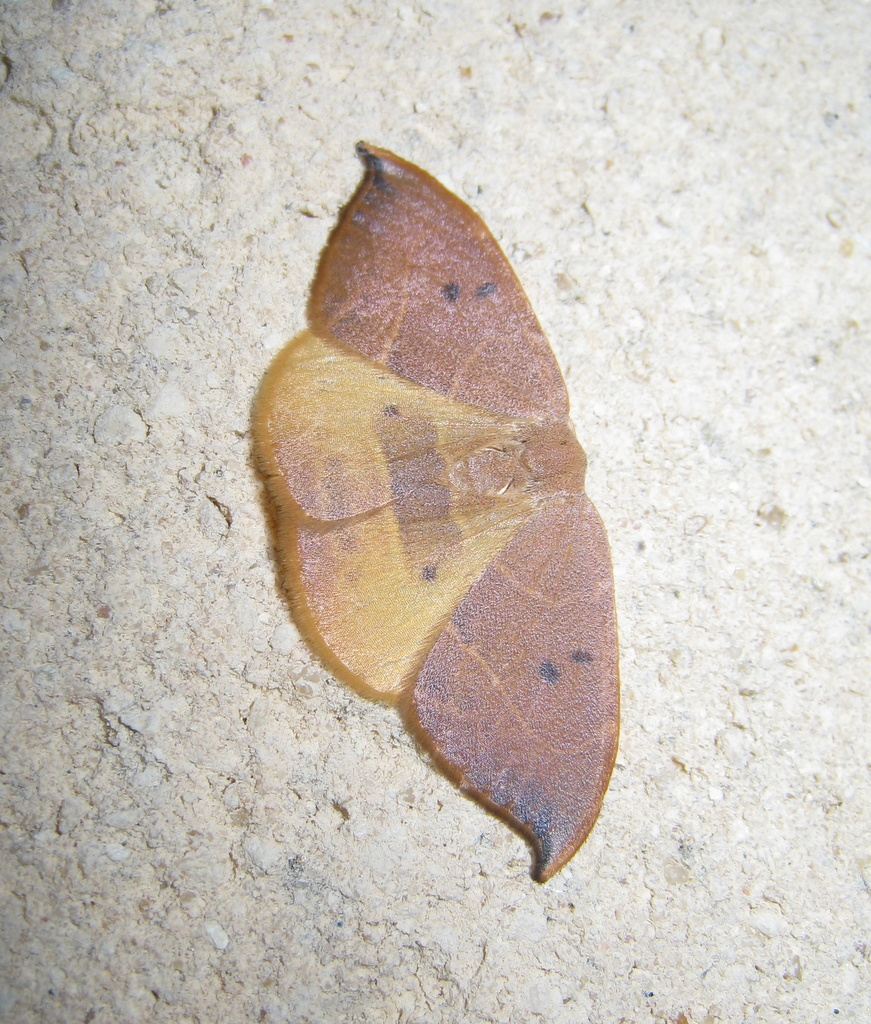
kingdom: Animalia
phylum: Arthropoda
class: Insecta
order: Lepidoptera
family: Drepanidae
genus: Watsonalla
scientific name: Watsonalla binaria
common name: Oak hook-tip
